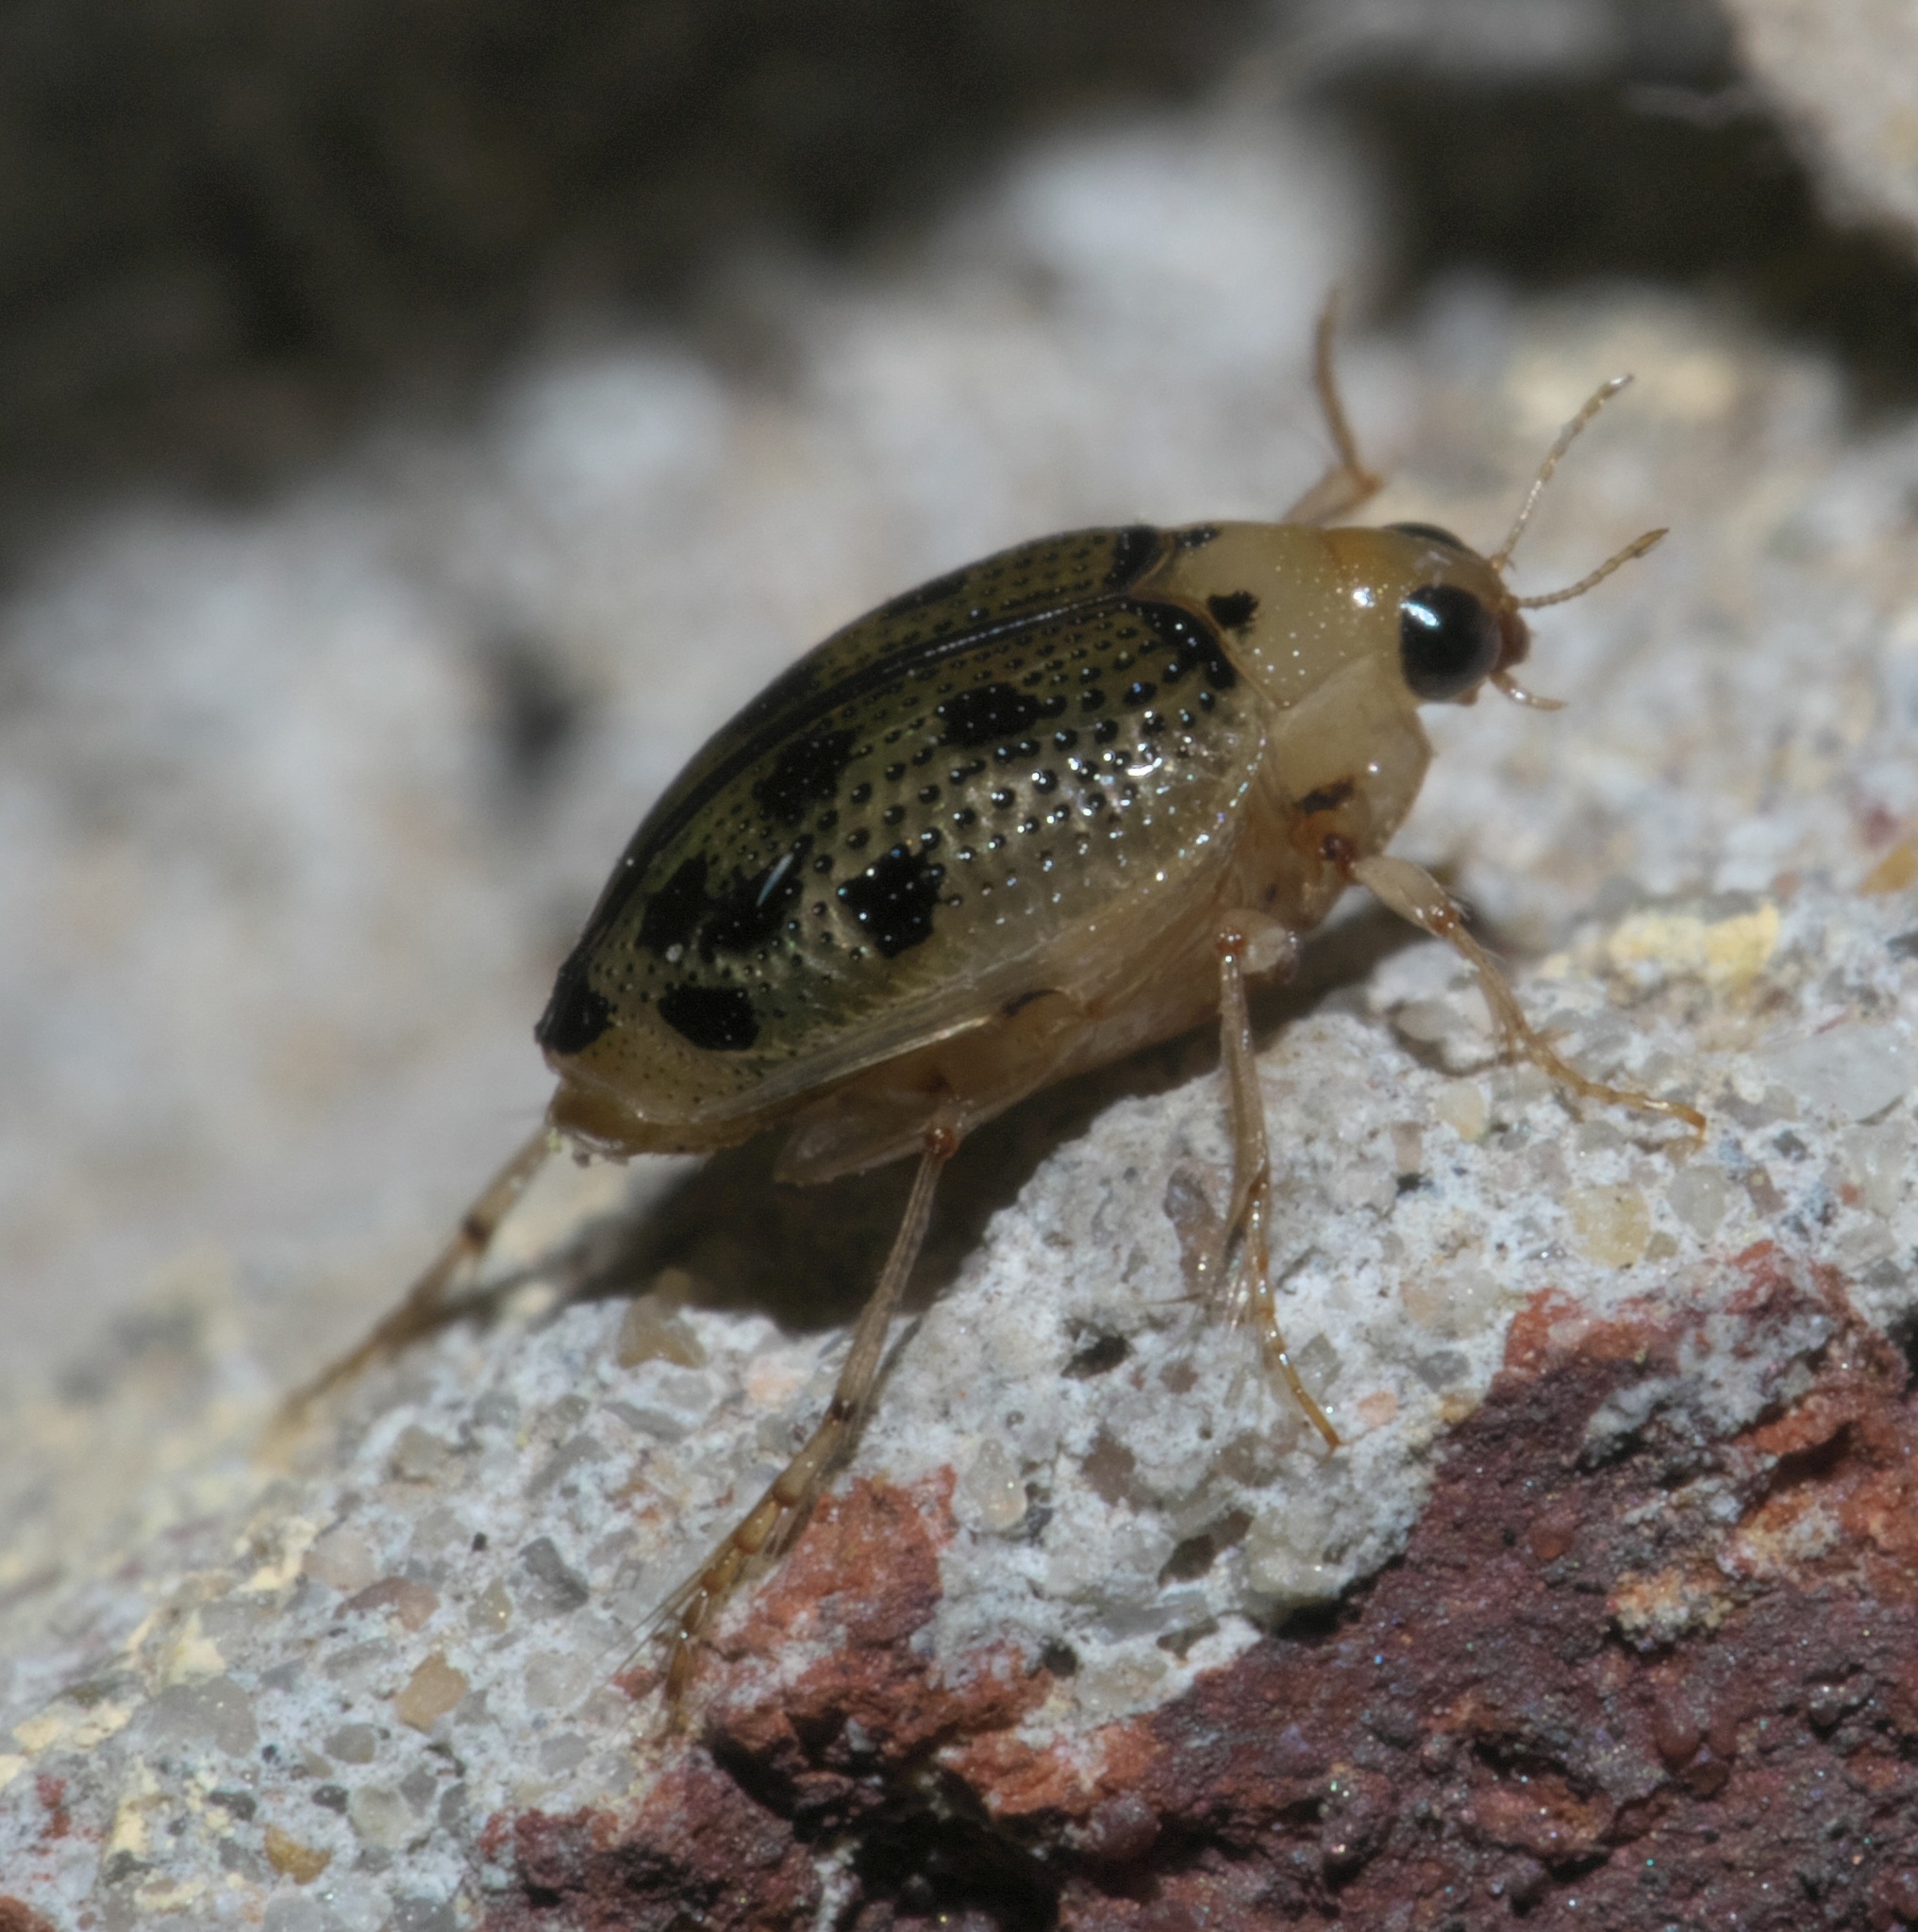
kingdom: Animalia
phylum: Arthropoda
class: Insecta
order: Coleoptera
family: Haliplidae
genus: Peltodytes
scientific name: Peltodytes litoralis
